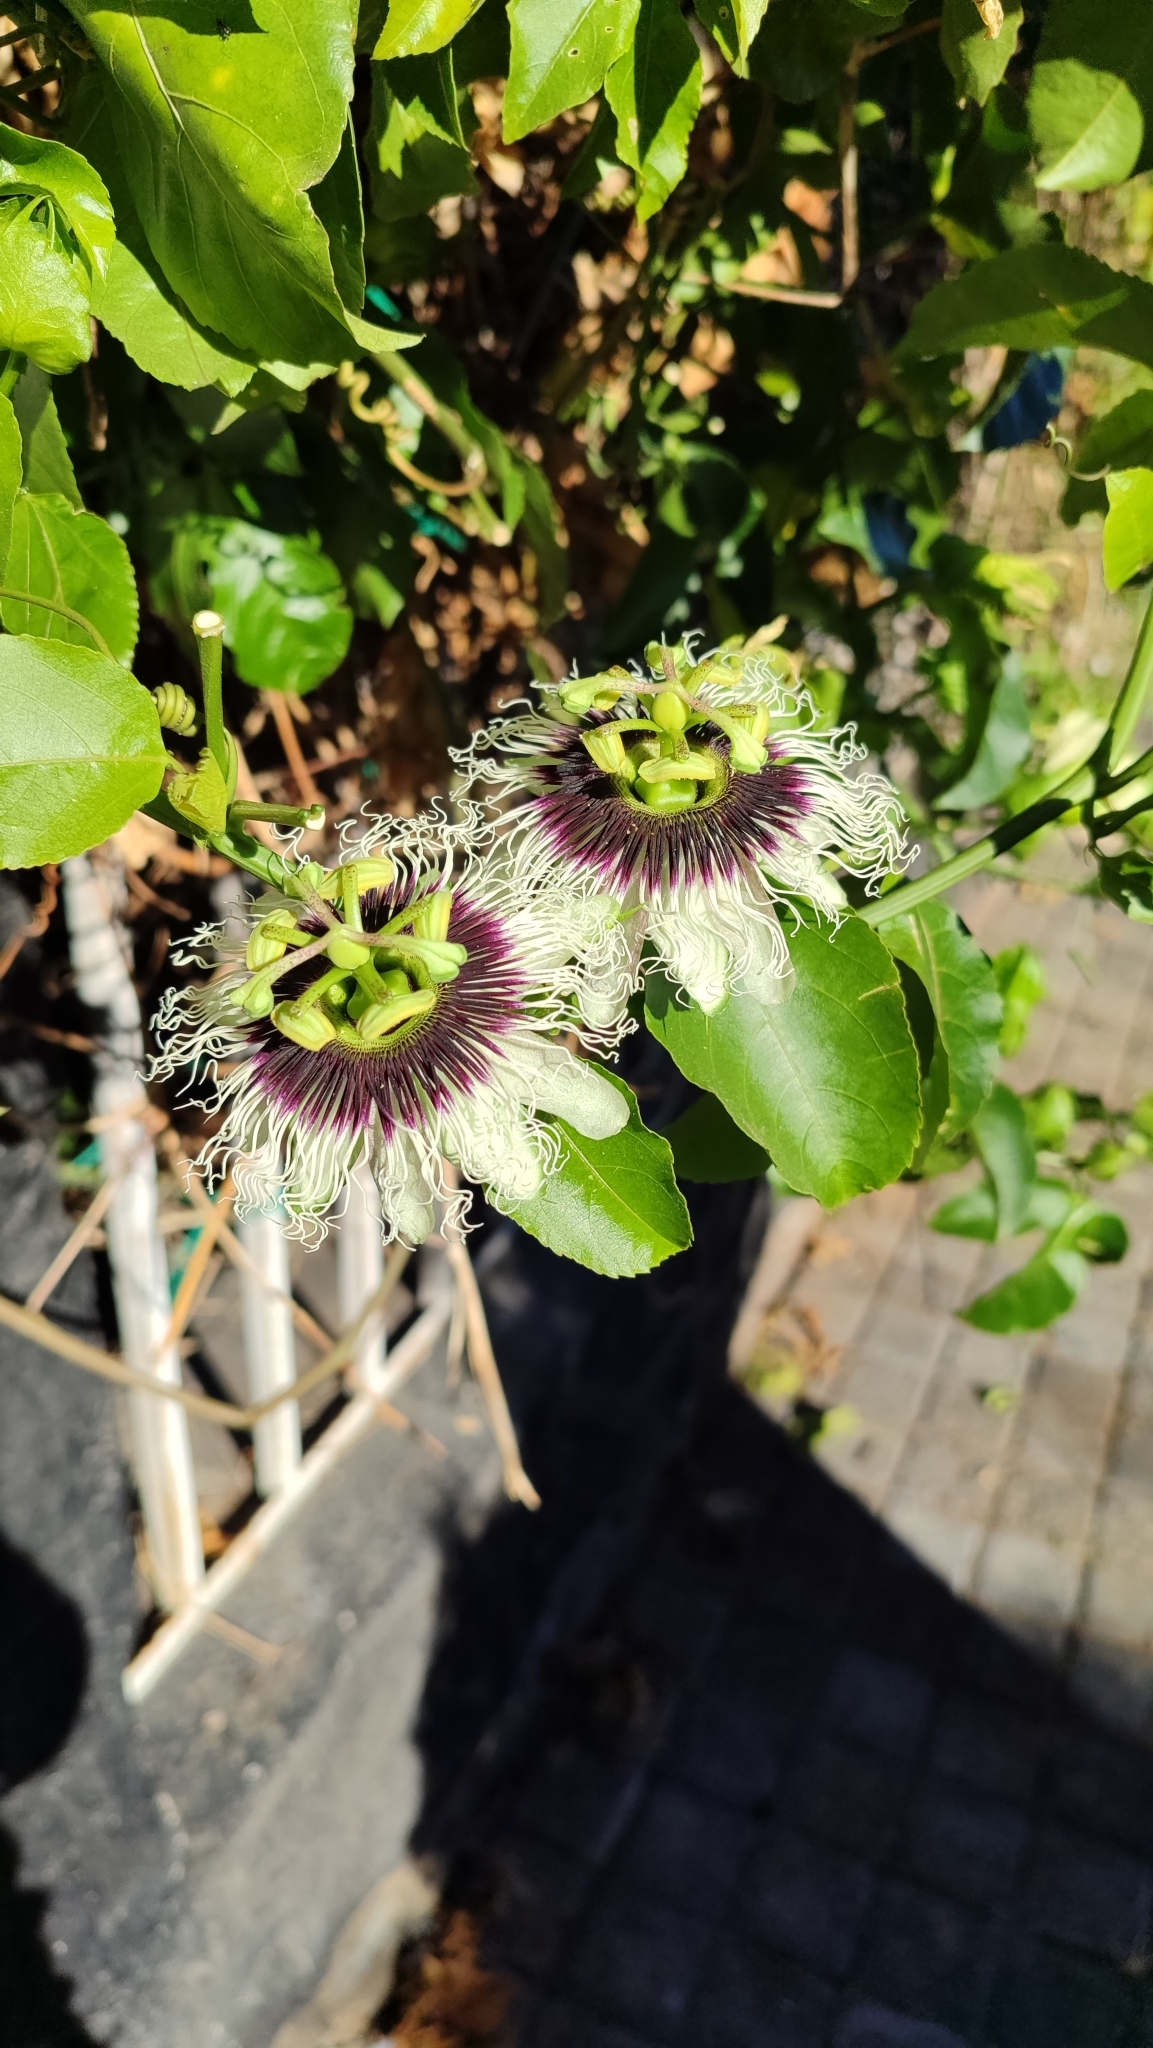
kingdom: Plantae
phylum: Tracheophyta
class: Magnoliopsida
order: Malpighiales
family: Passifloraceae
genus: Passiflora
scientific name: Passiflora edulis
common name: Purple granadilla
